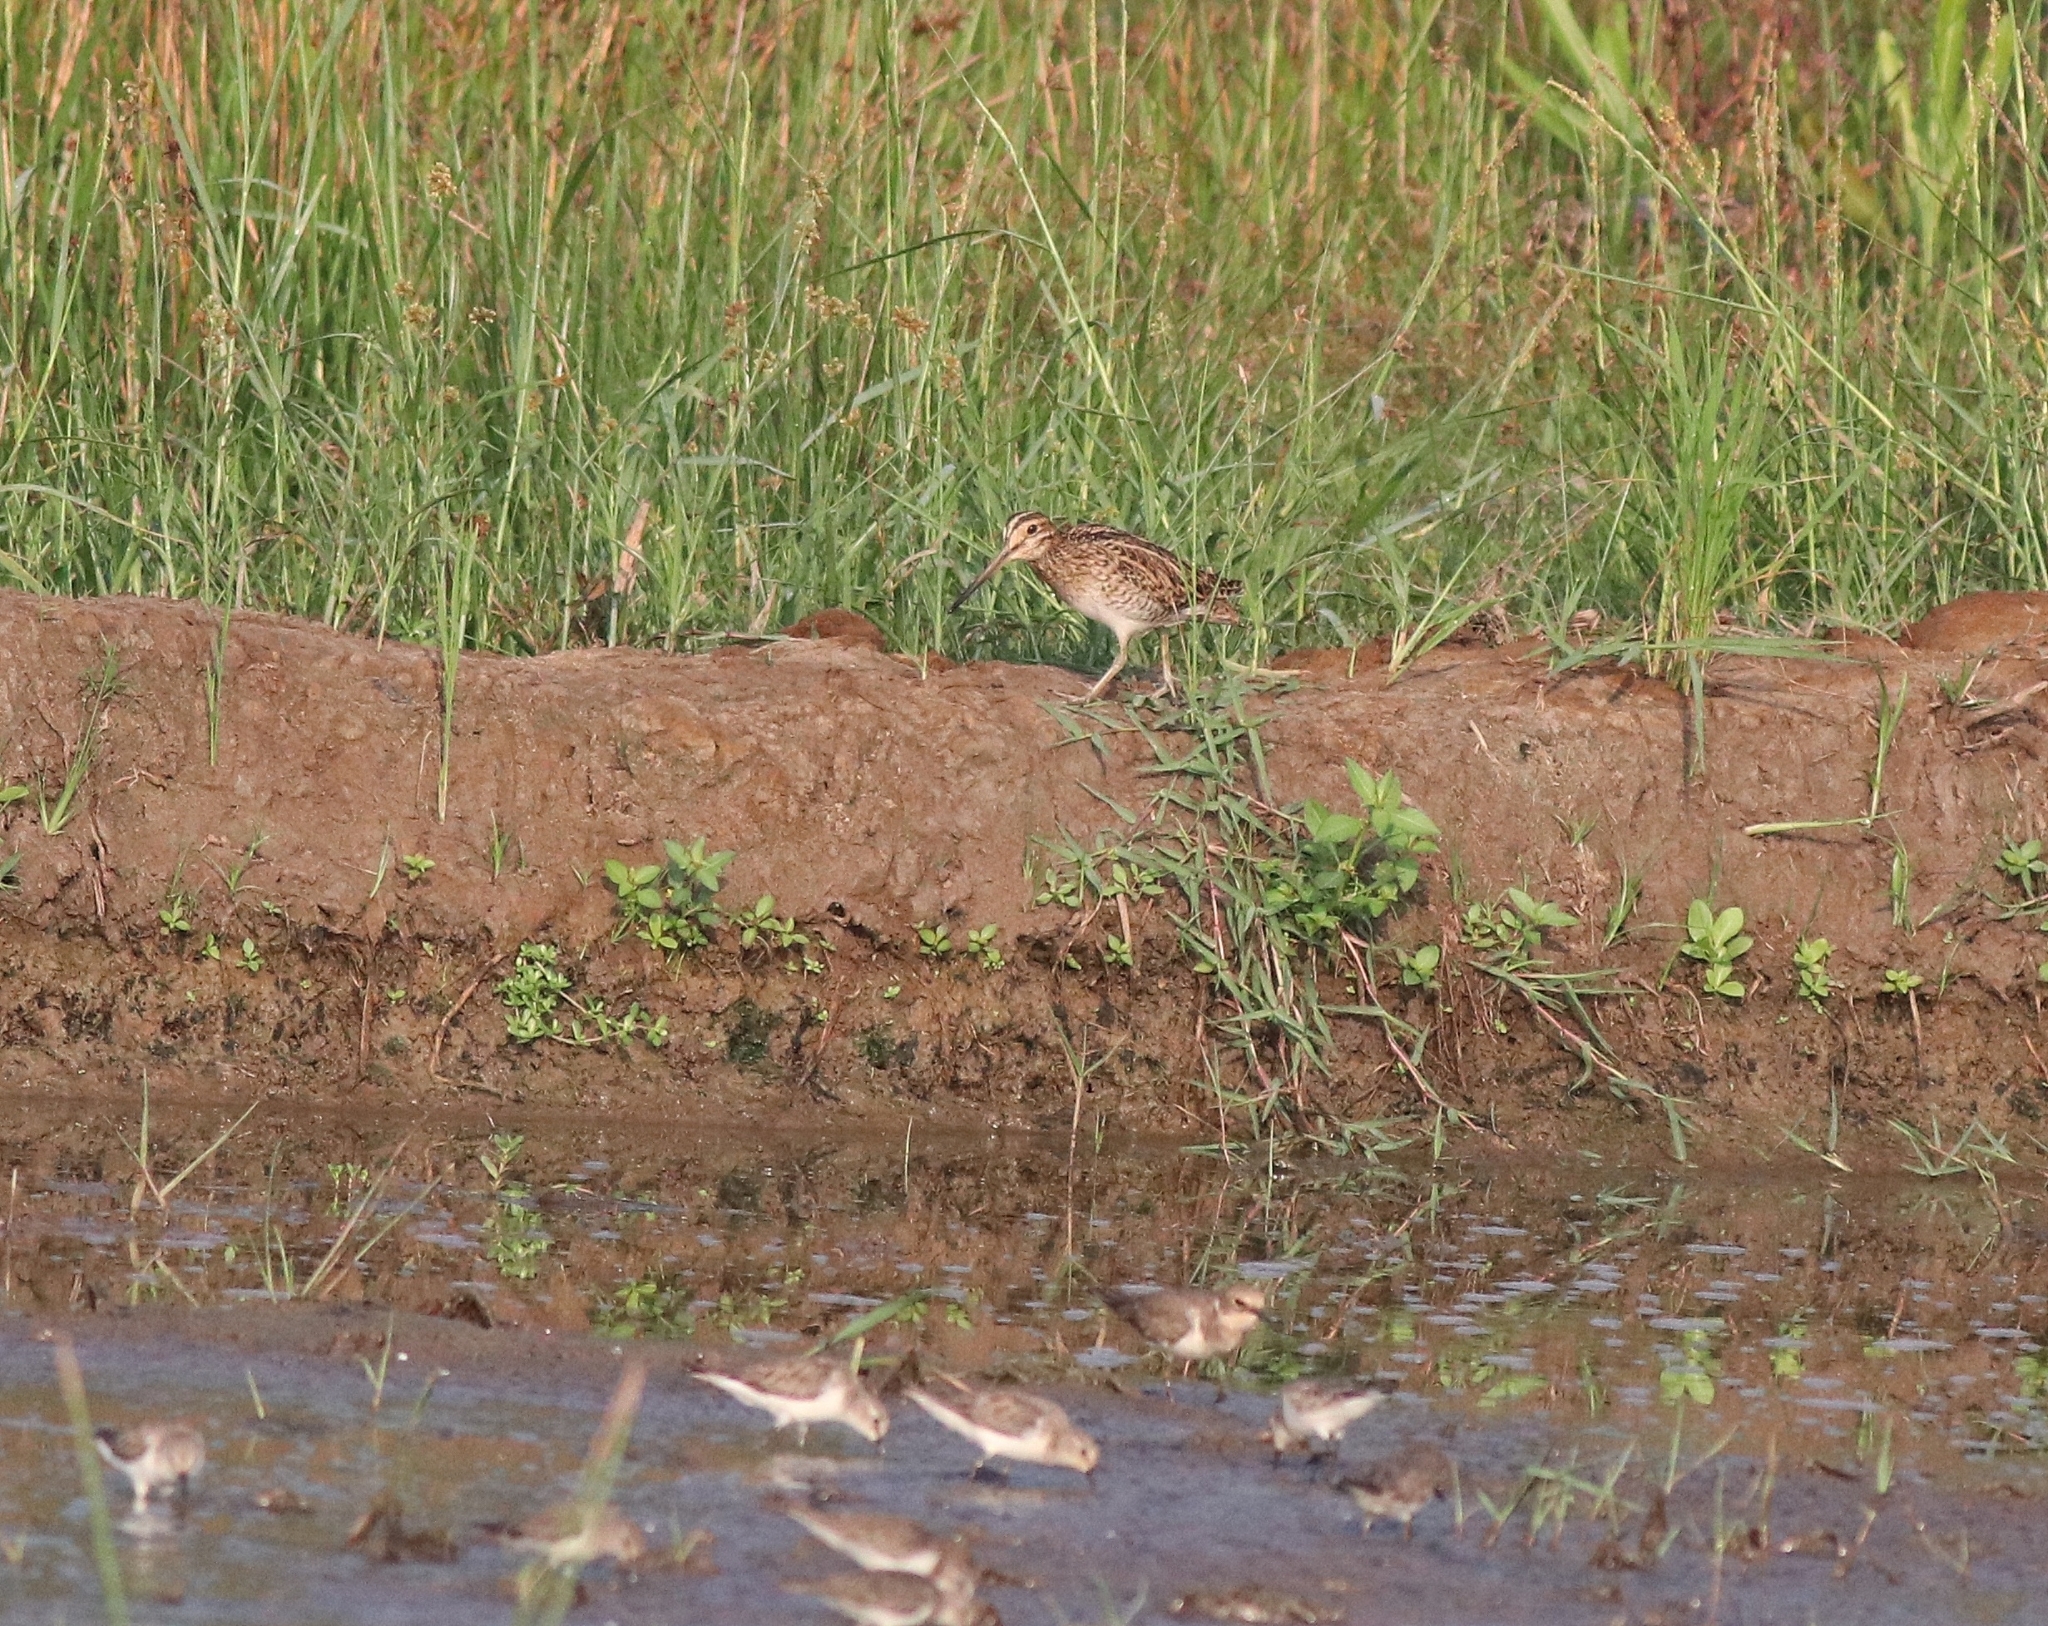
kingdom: Animalia
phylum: Chordata
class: Aves
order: Charadriiformes
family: Scolopacidae
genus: Gallinago
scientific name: Gallinago stenura
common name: Pin-tailed snipe
